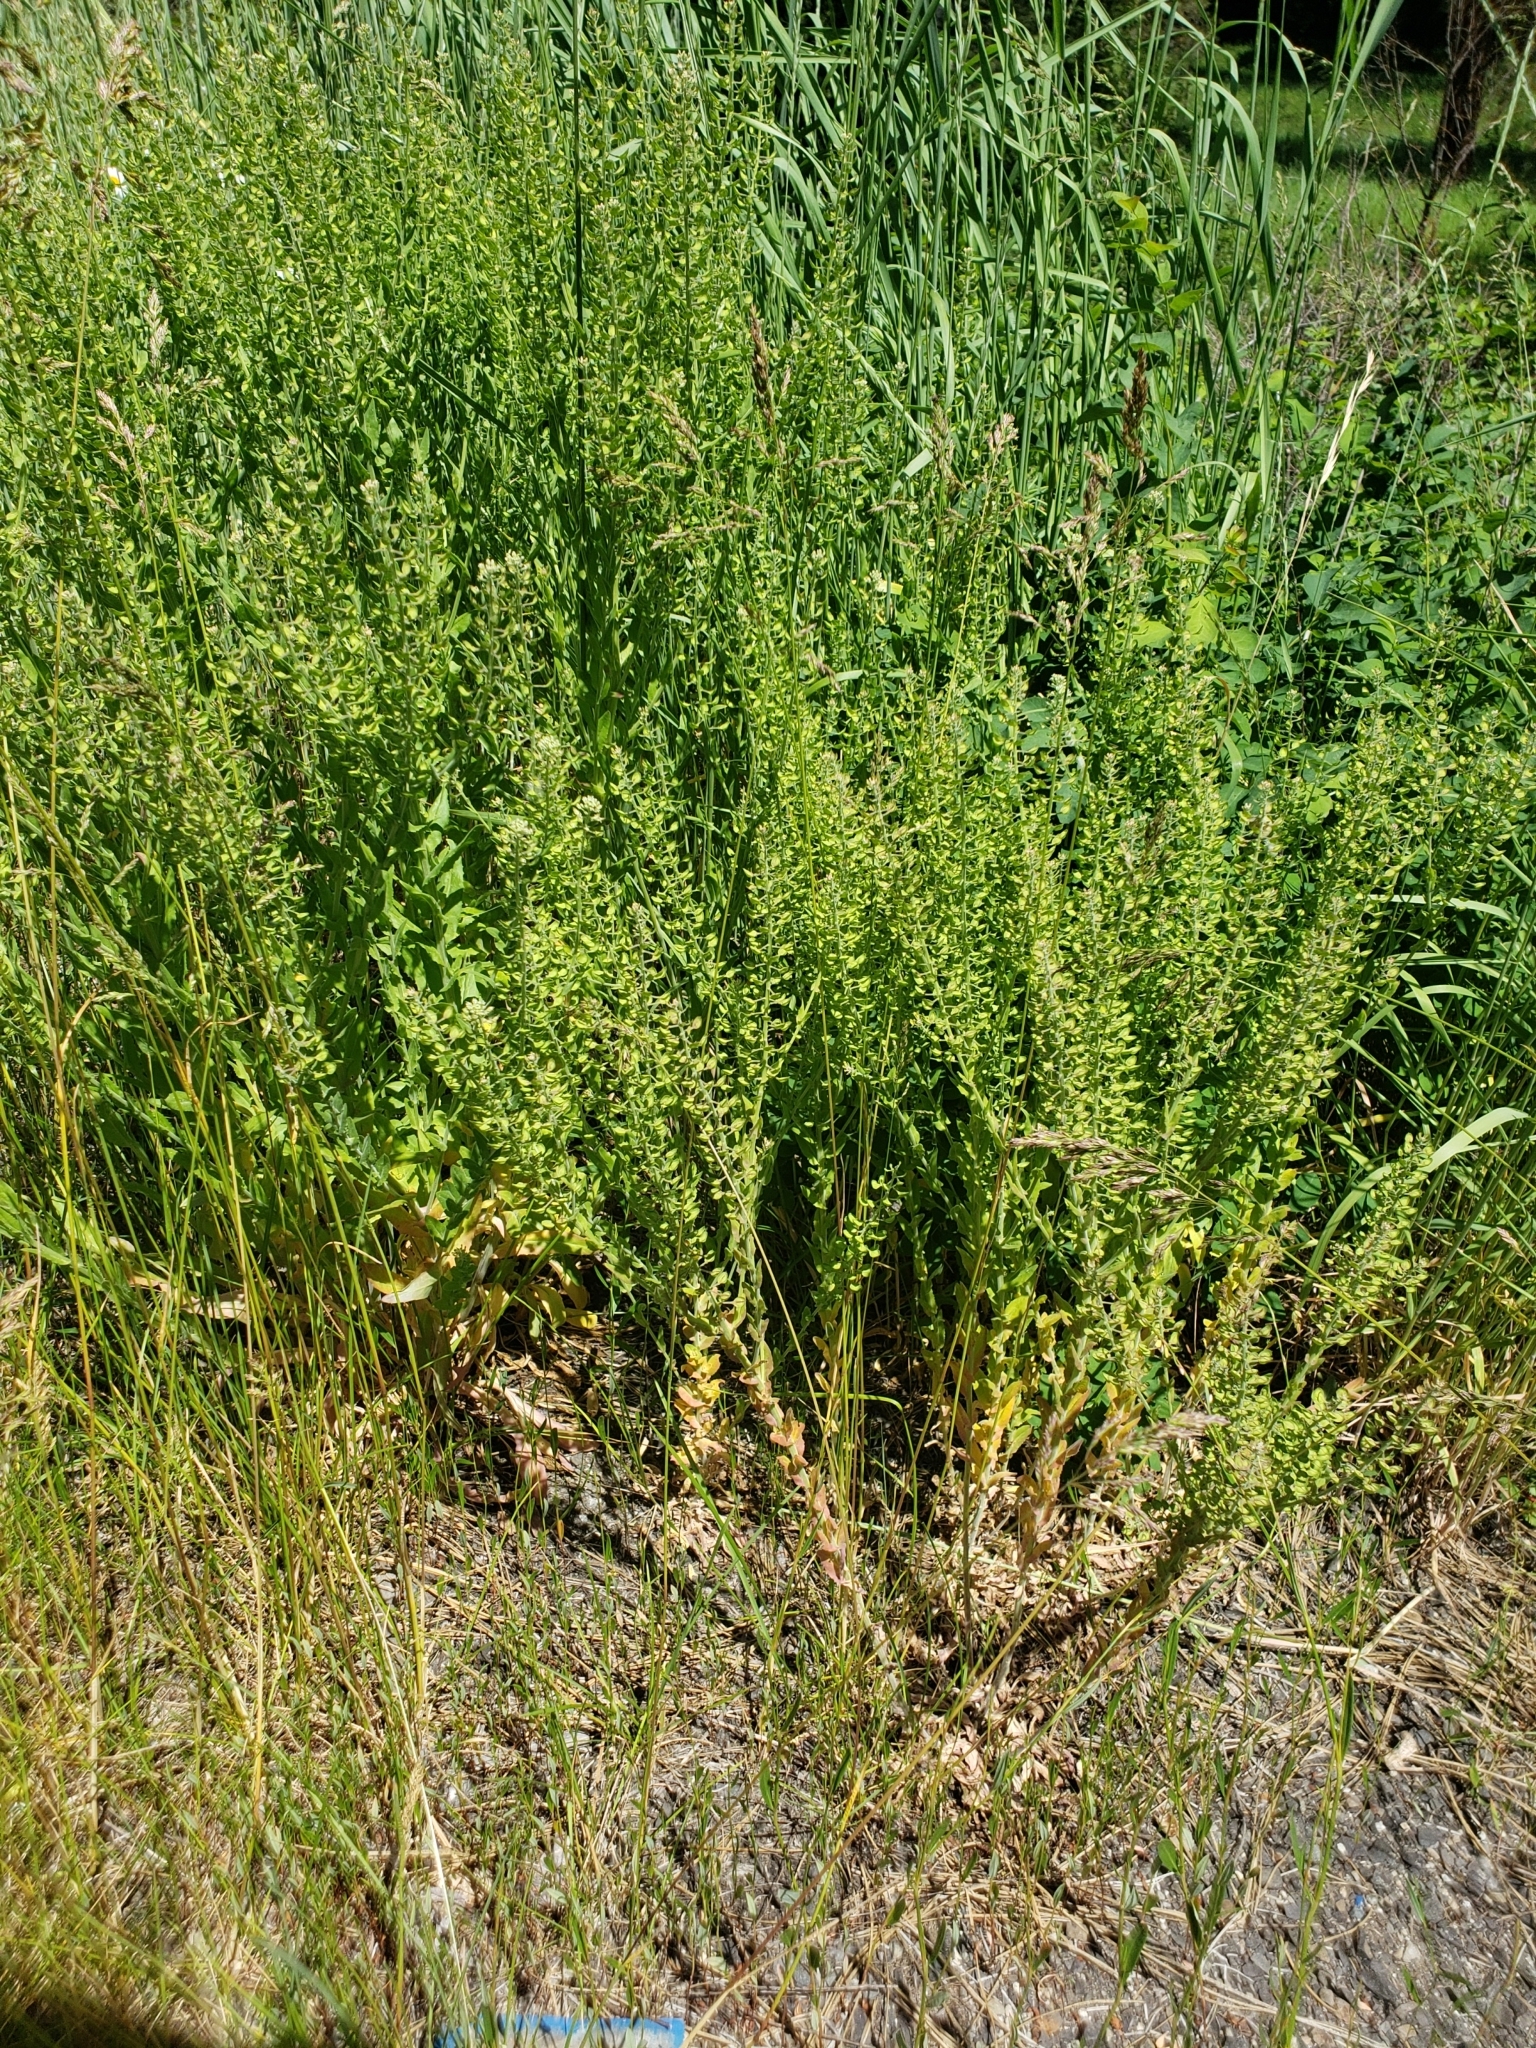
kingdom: Plantae
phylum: Tracheophyta
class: Magnoliopsida
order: Brassicales
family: Brassicaceae
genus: Lepidium
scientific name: Lepidium campestre
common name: Field pepperwort
